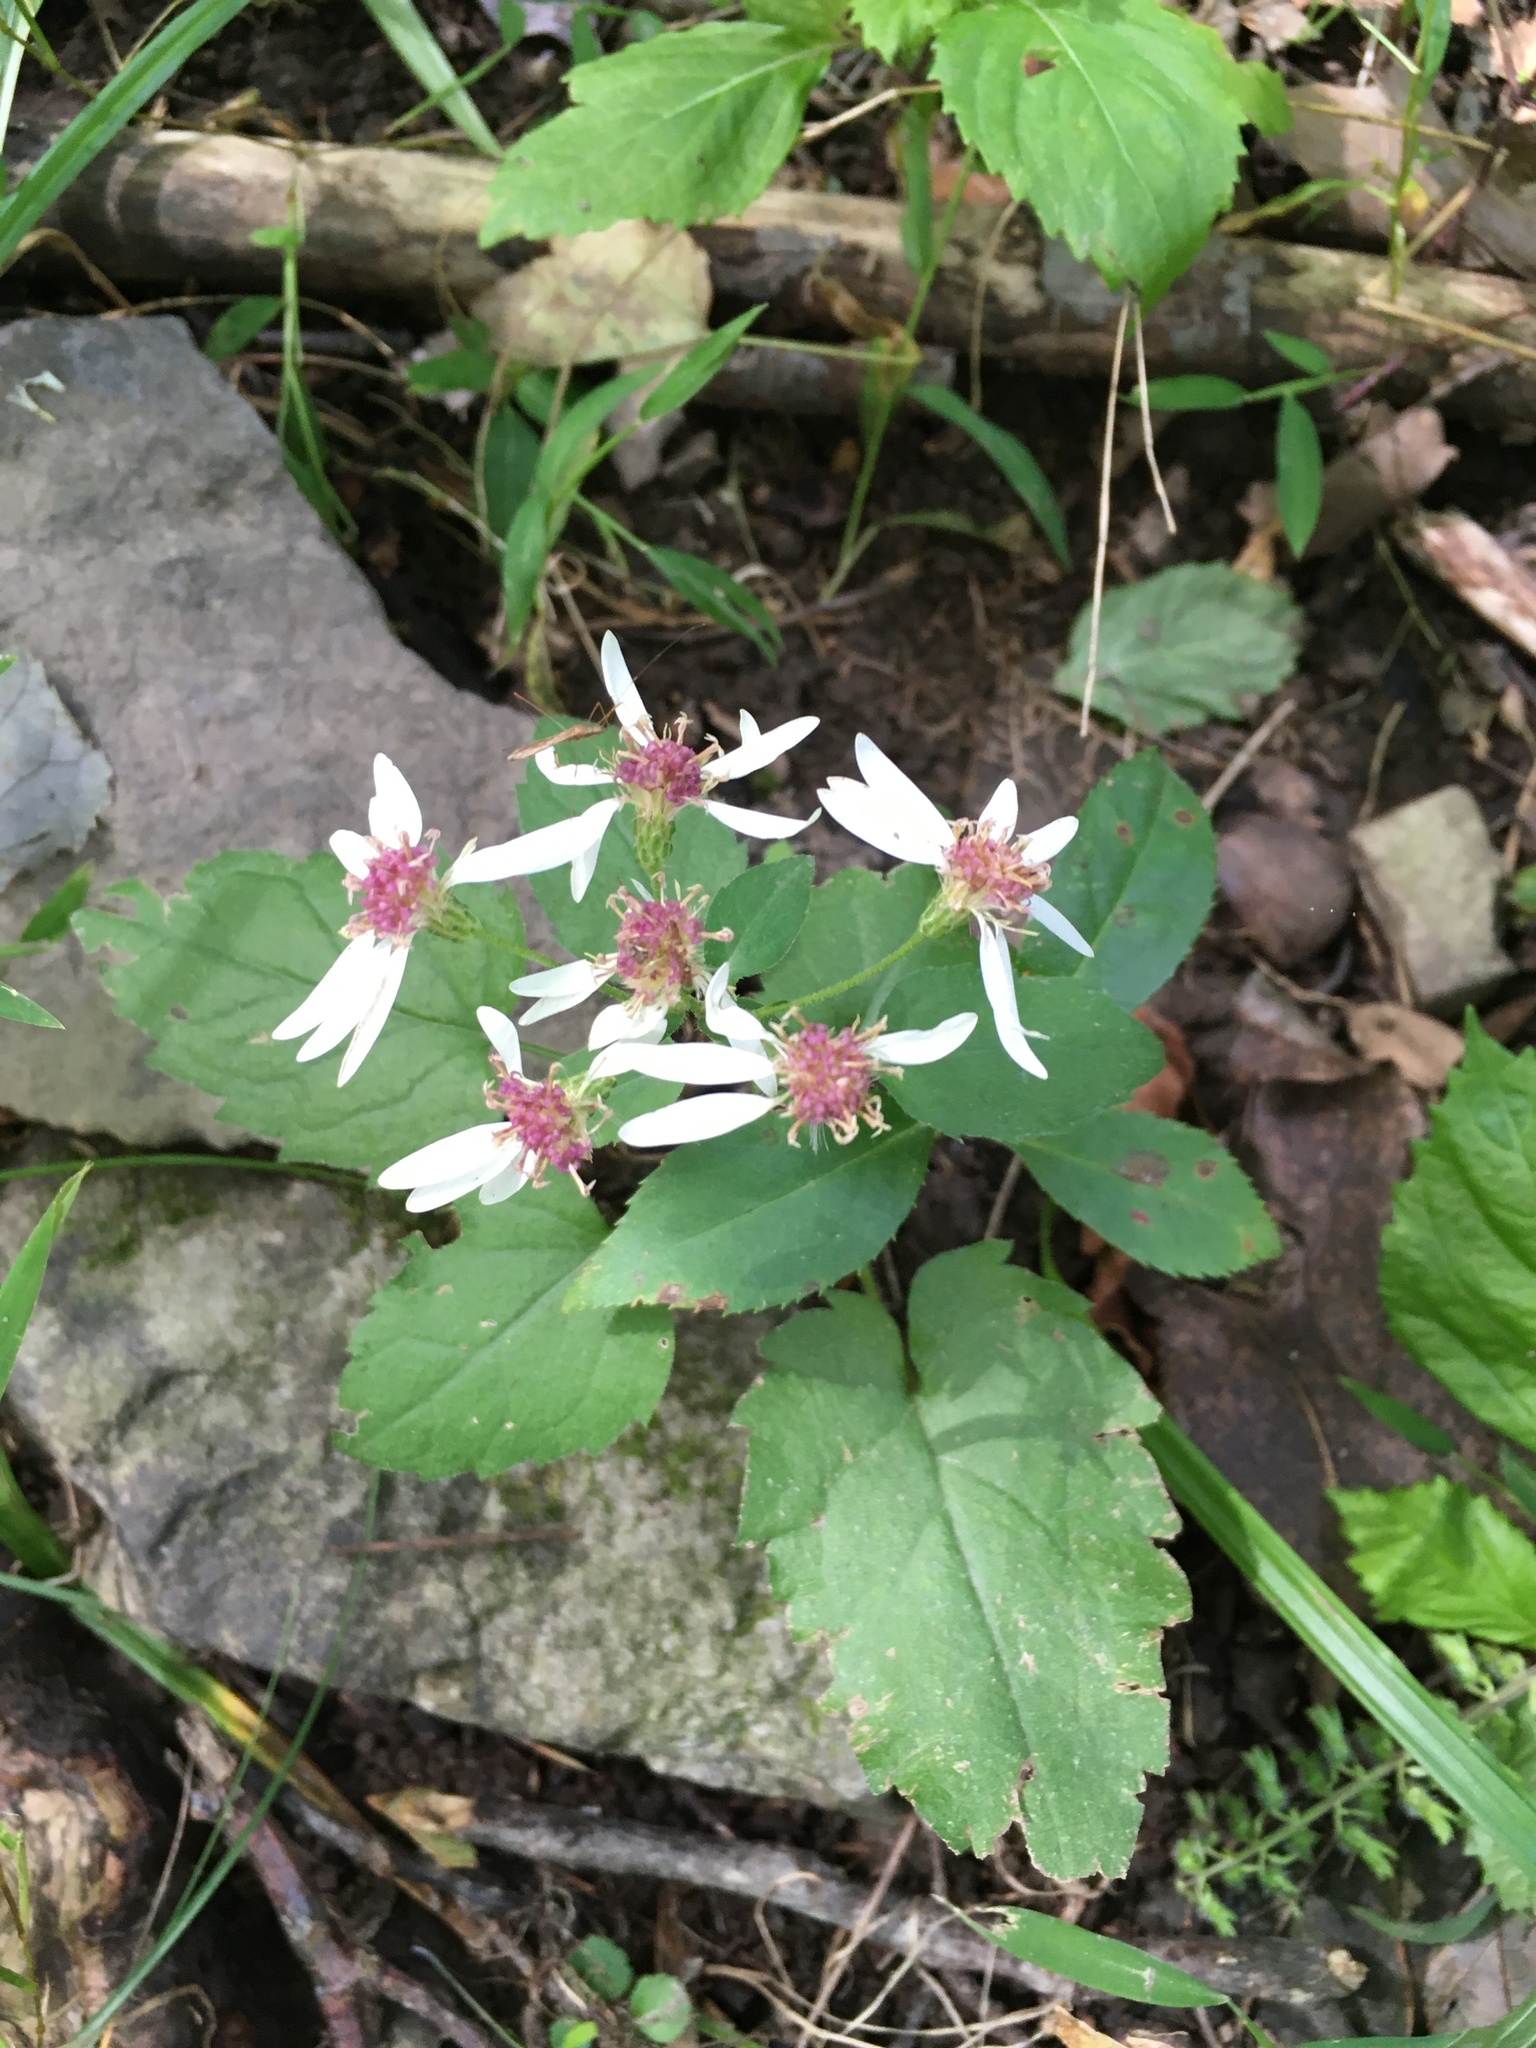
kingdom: Plantae
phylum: Tracheophyta
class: Magnoliopsida
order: Asterales
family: Asteraceae
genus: Eurybia
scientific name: Eurybia divaricata
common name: White wood aster
